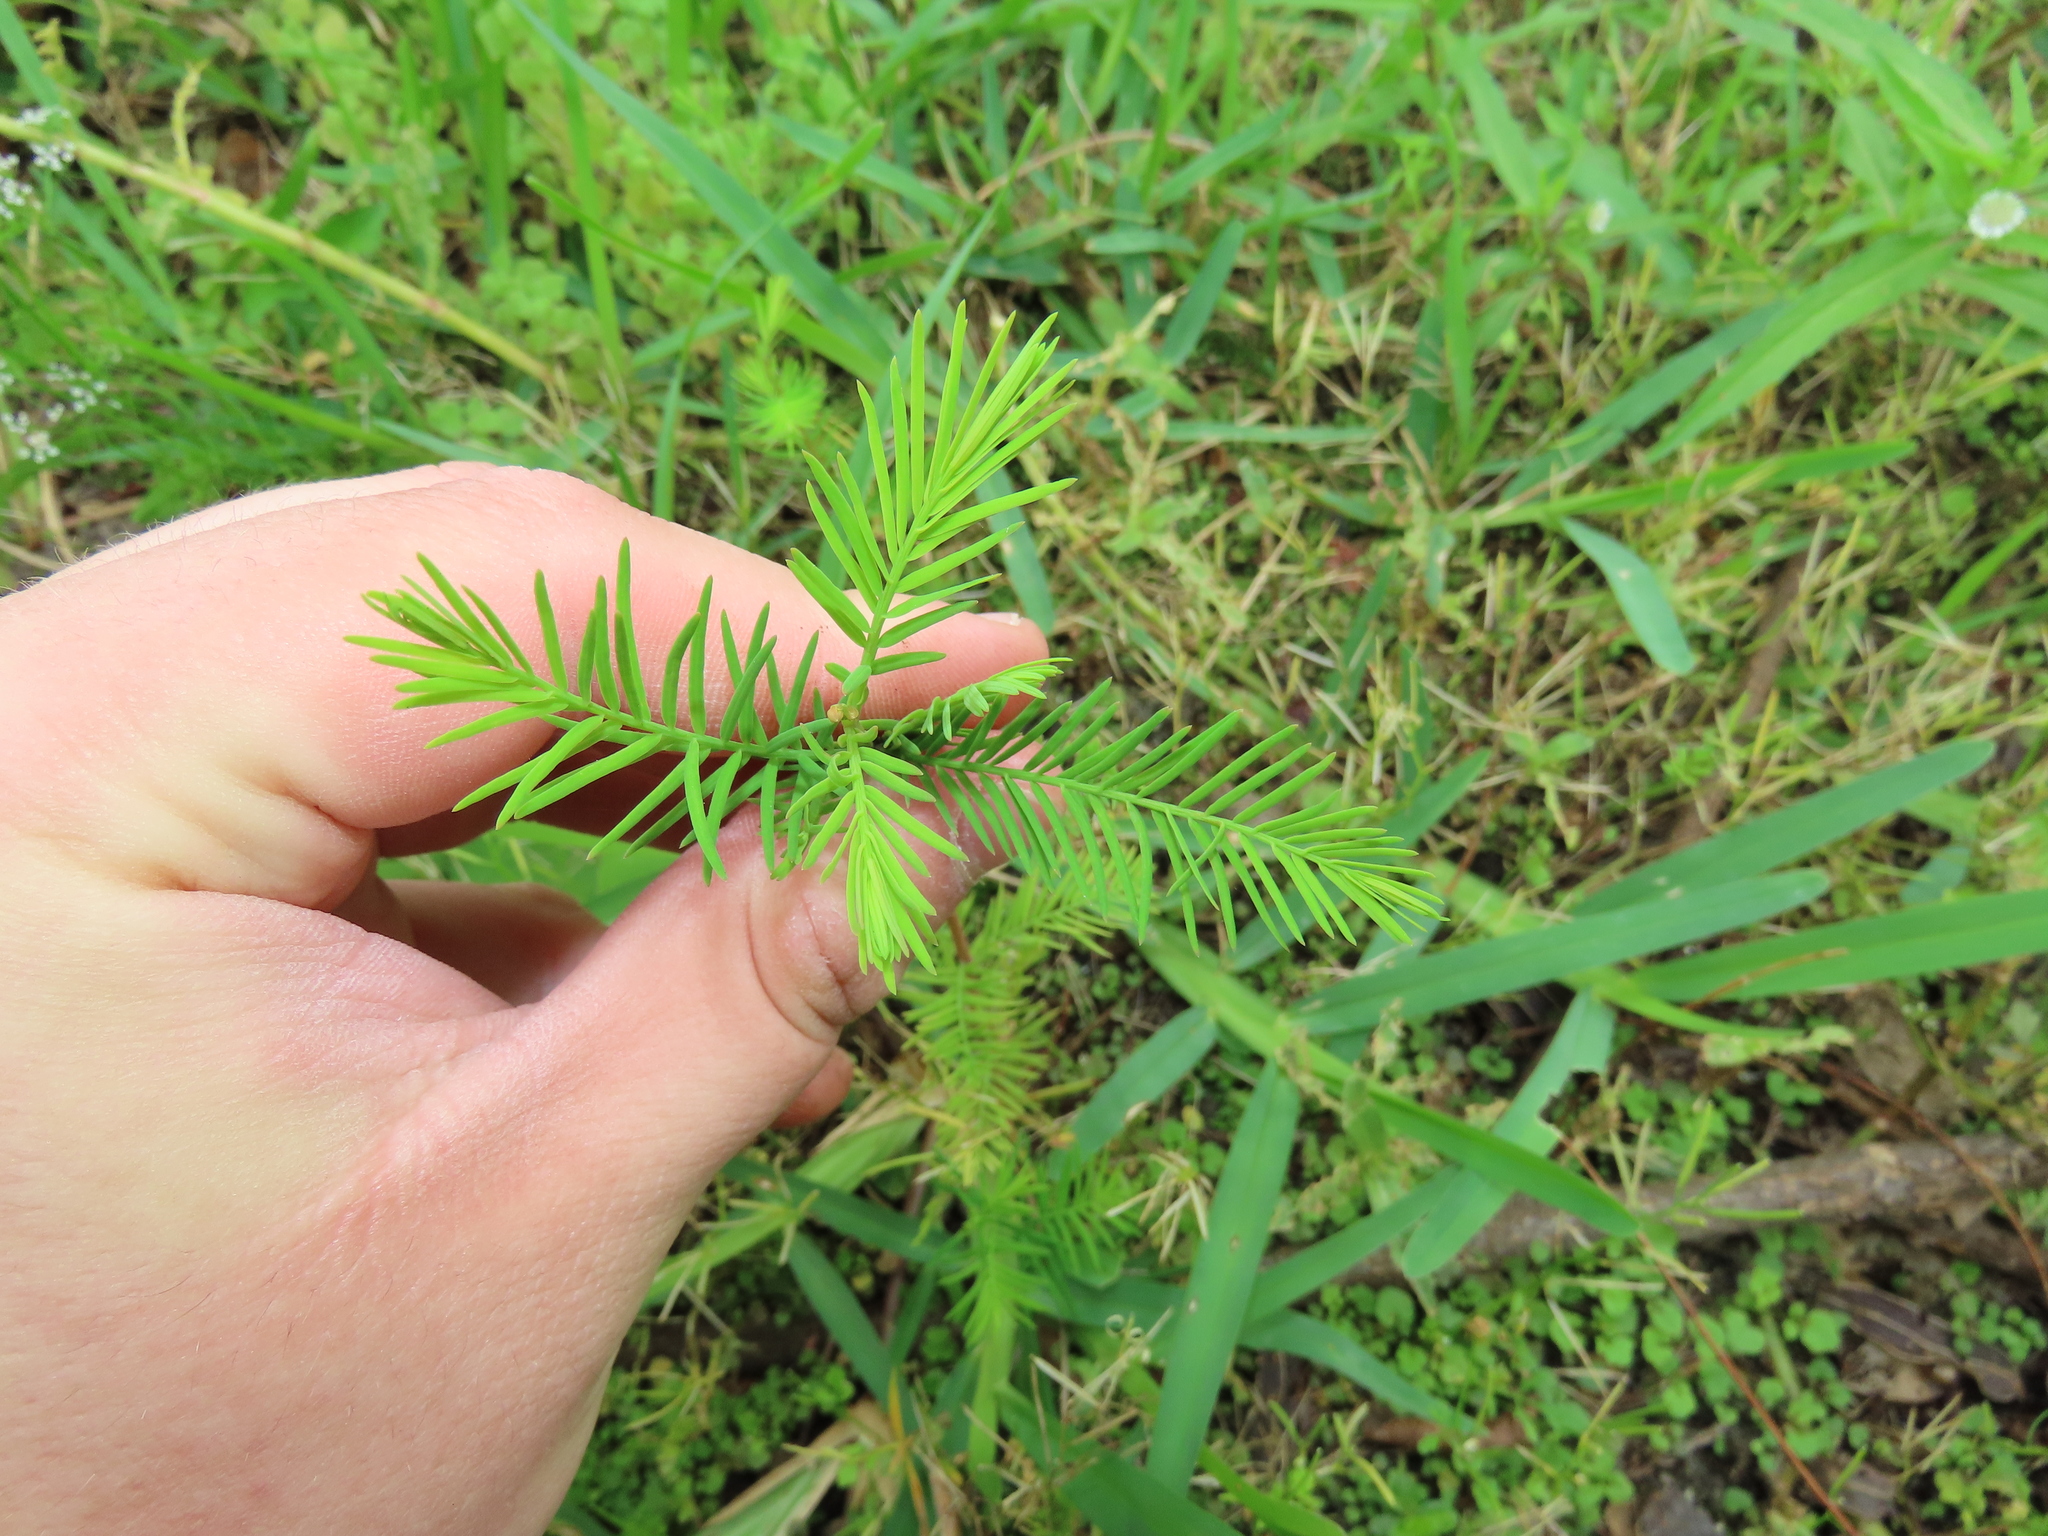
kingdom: Plantae
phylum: Tracheophyta
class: Pinopsida
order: Pinales
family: Cupressaceae
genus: Taxodium
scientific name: Taxodium distichum
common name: Bald cypress
